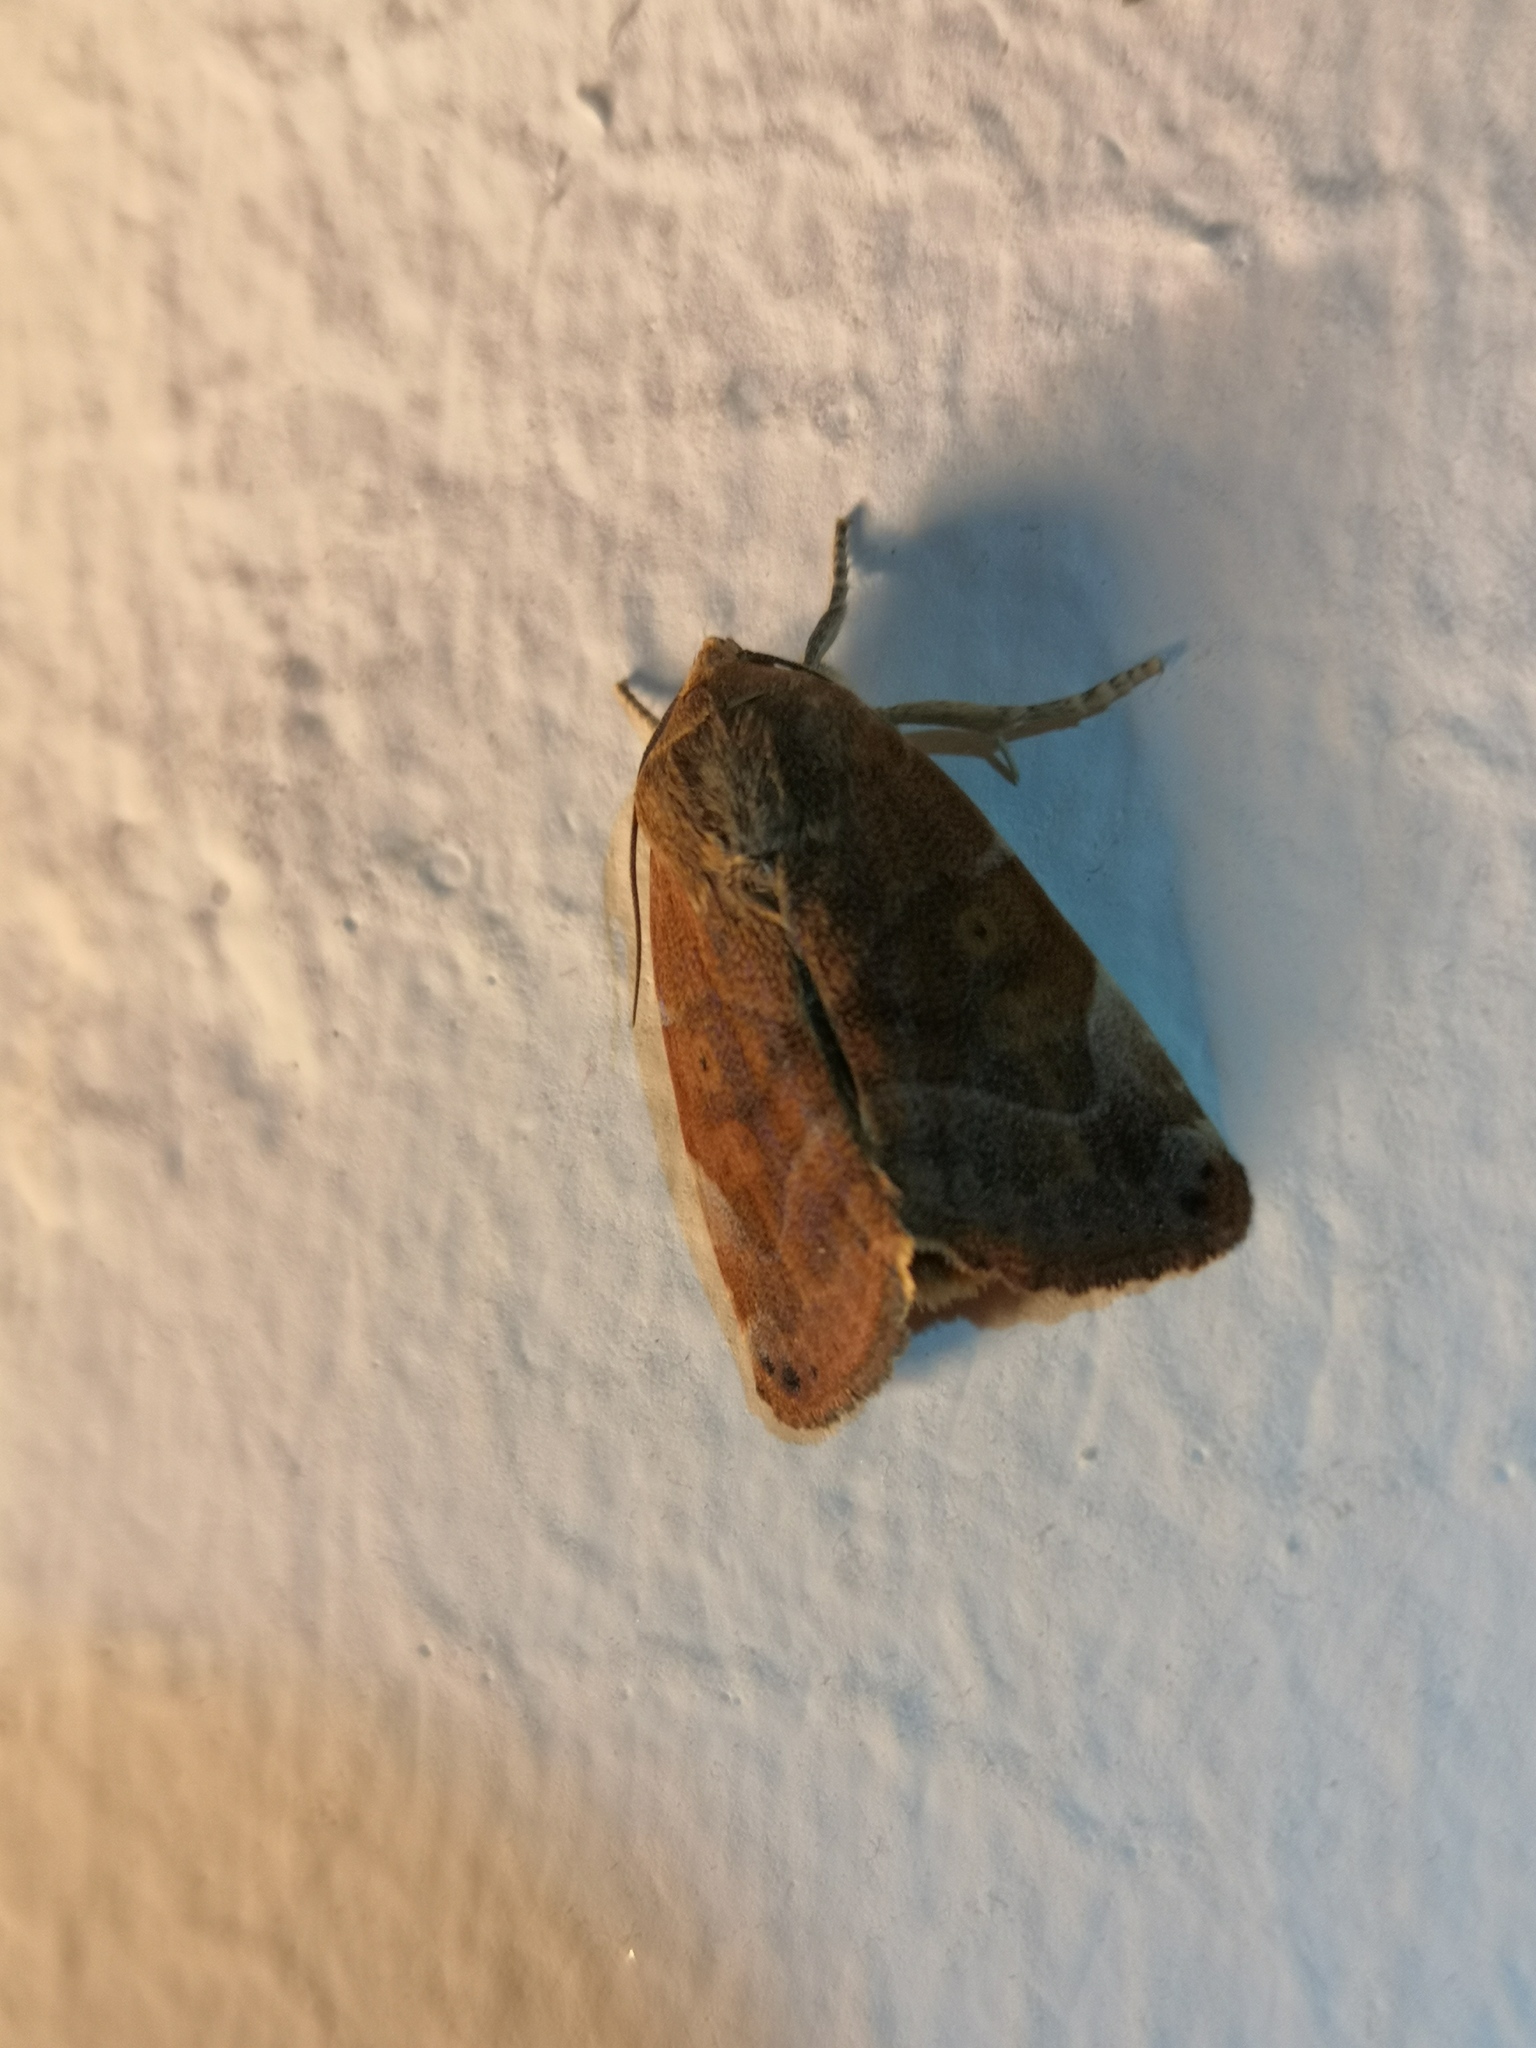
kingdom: Animalia
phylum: Arthropoda
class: Insecta
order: Lepidoptera
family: Noctuidae
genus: Cosmia
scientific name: Cosmia affinis
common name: Lesser-spotted pinion
